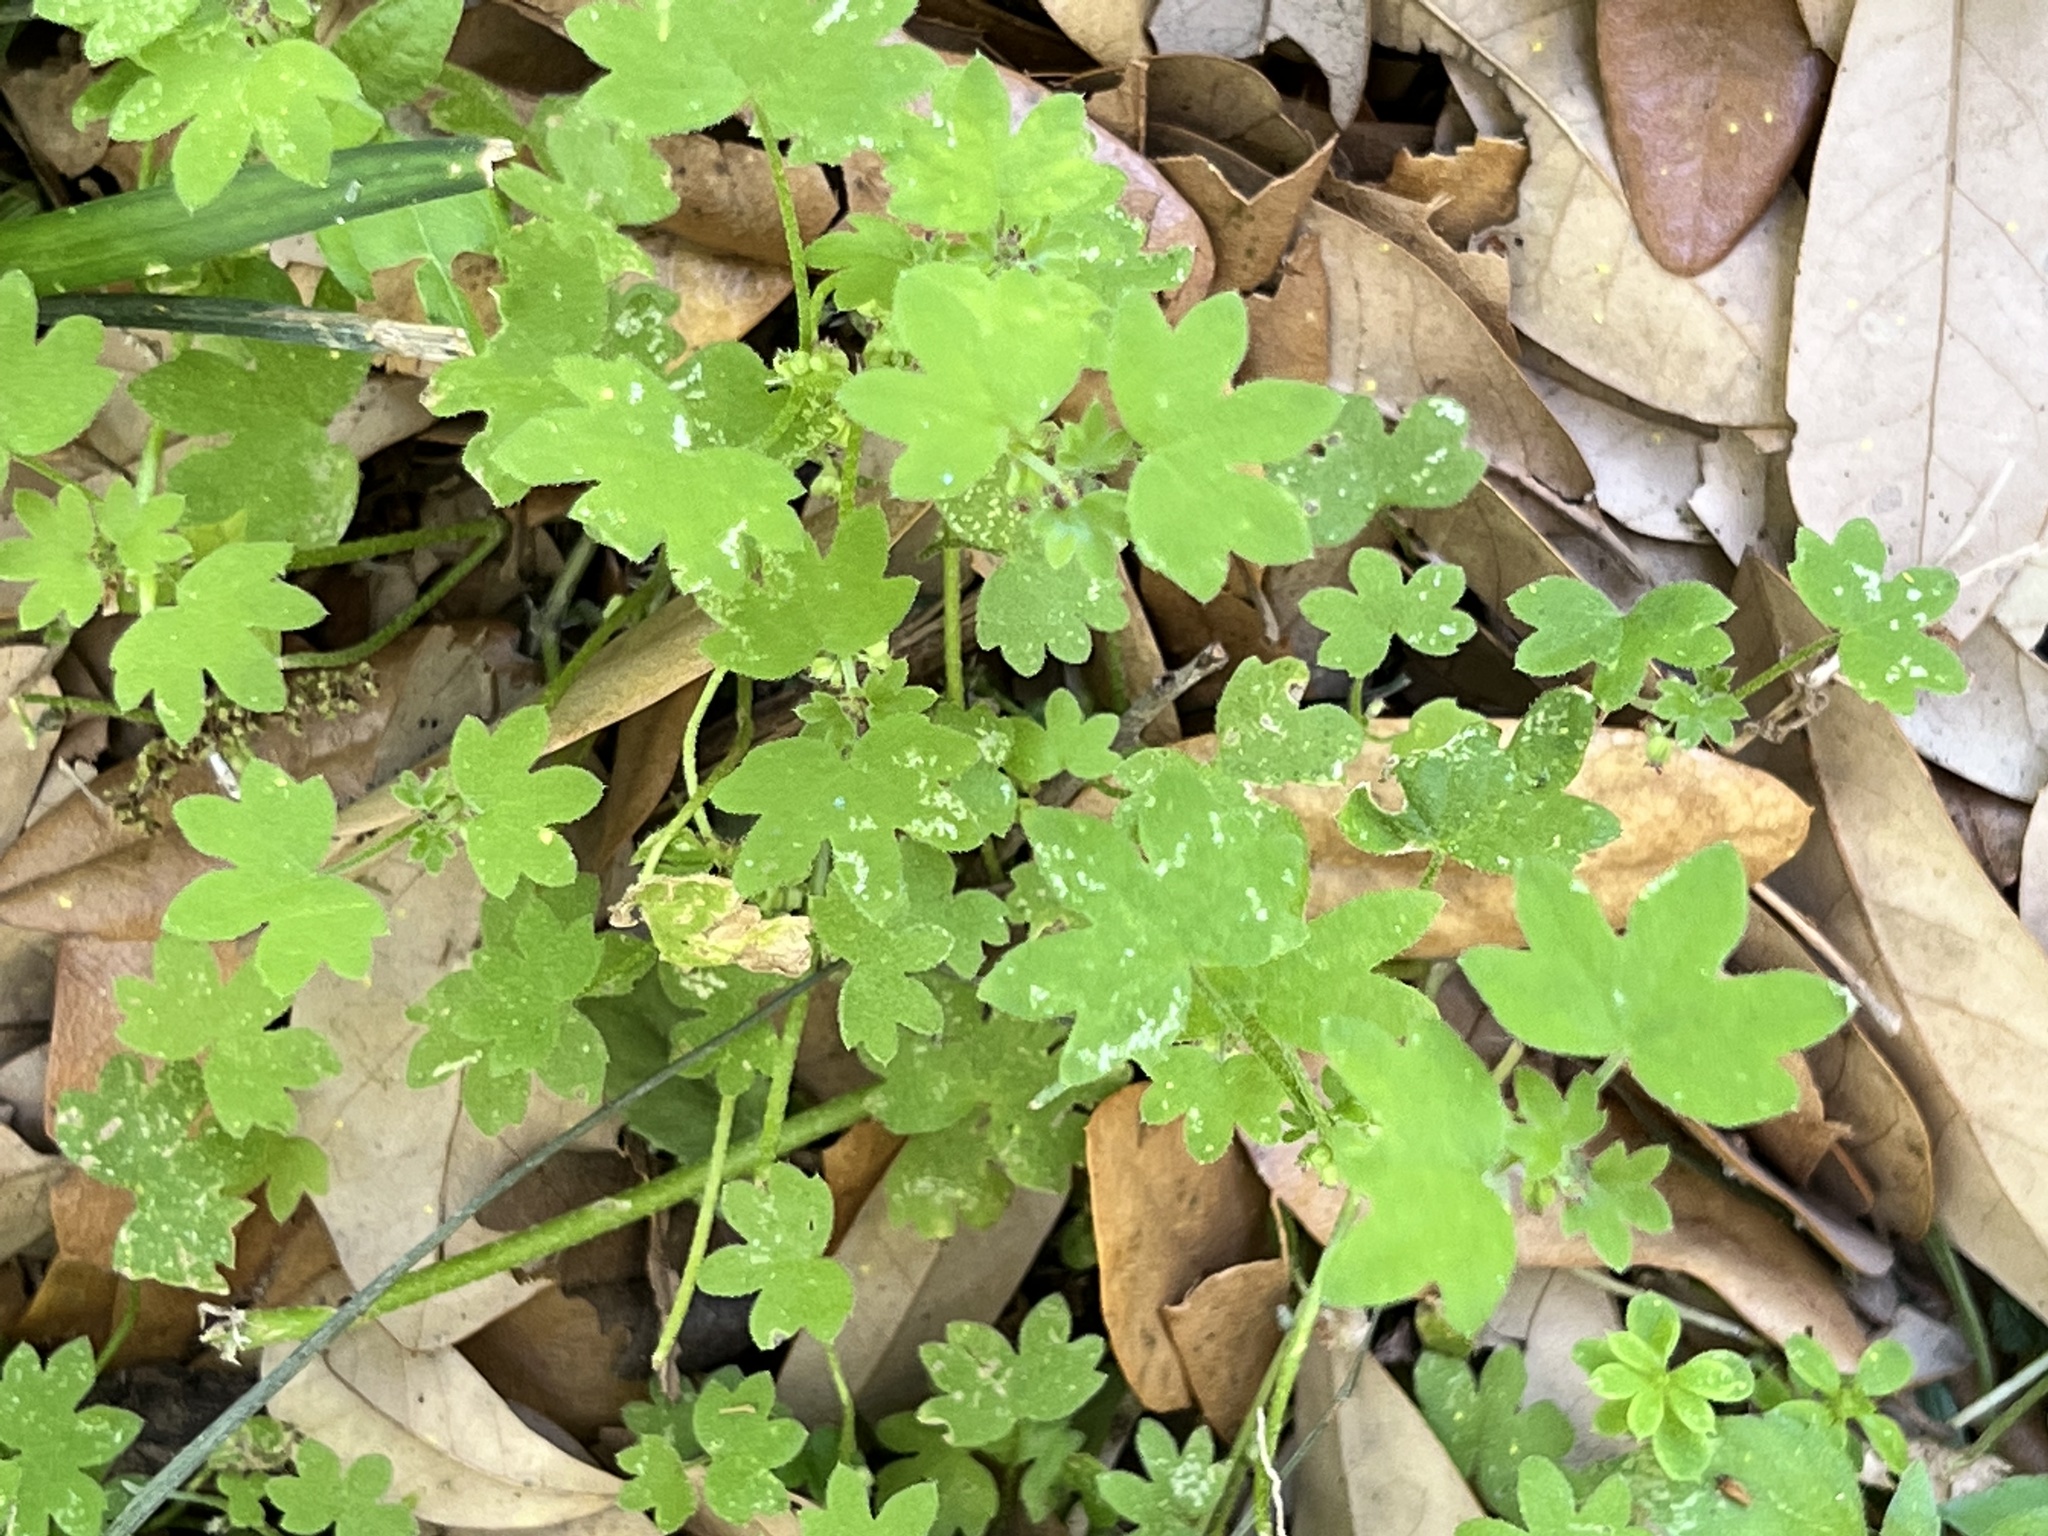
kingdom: Plantae
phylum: Tracheophyta
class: Magnoliopsida
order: Apiales
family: Apiaceae
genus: Bowlesia
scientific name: Bowlesia incana
